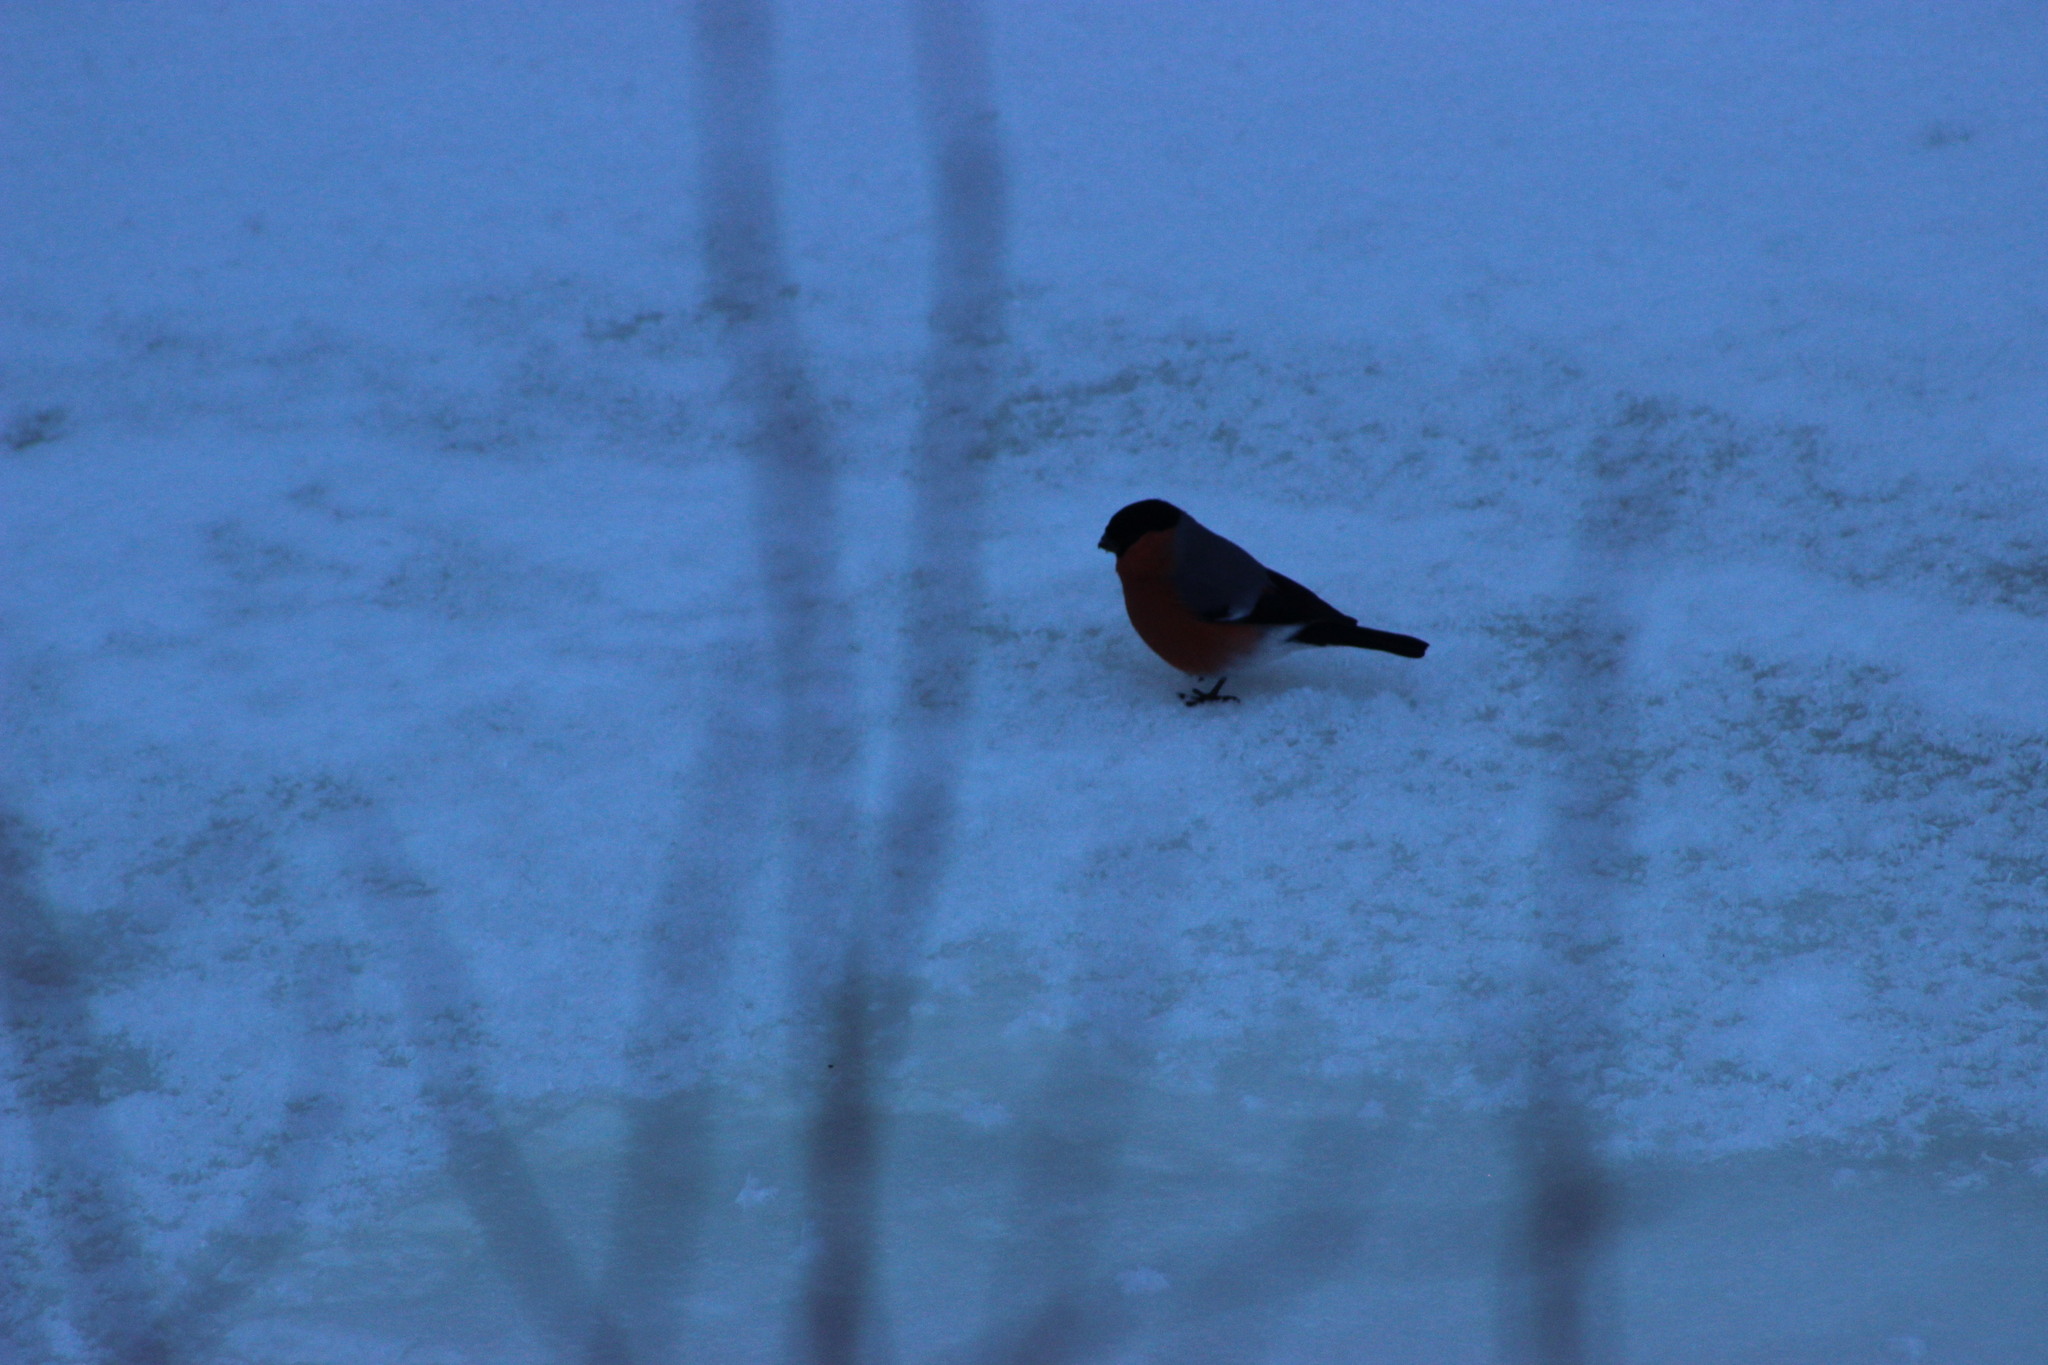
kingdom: Animalia
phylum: Chordata
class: Aves
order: Passeriformes
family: Fringillidae
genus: Pyrrhula
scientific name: Pyrrhula pyrrhula
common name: Eurasian bullfinch
